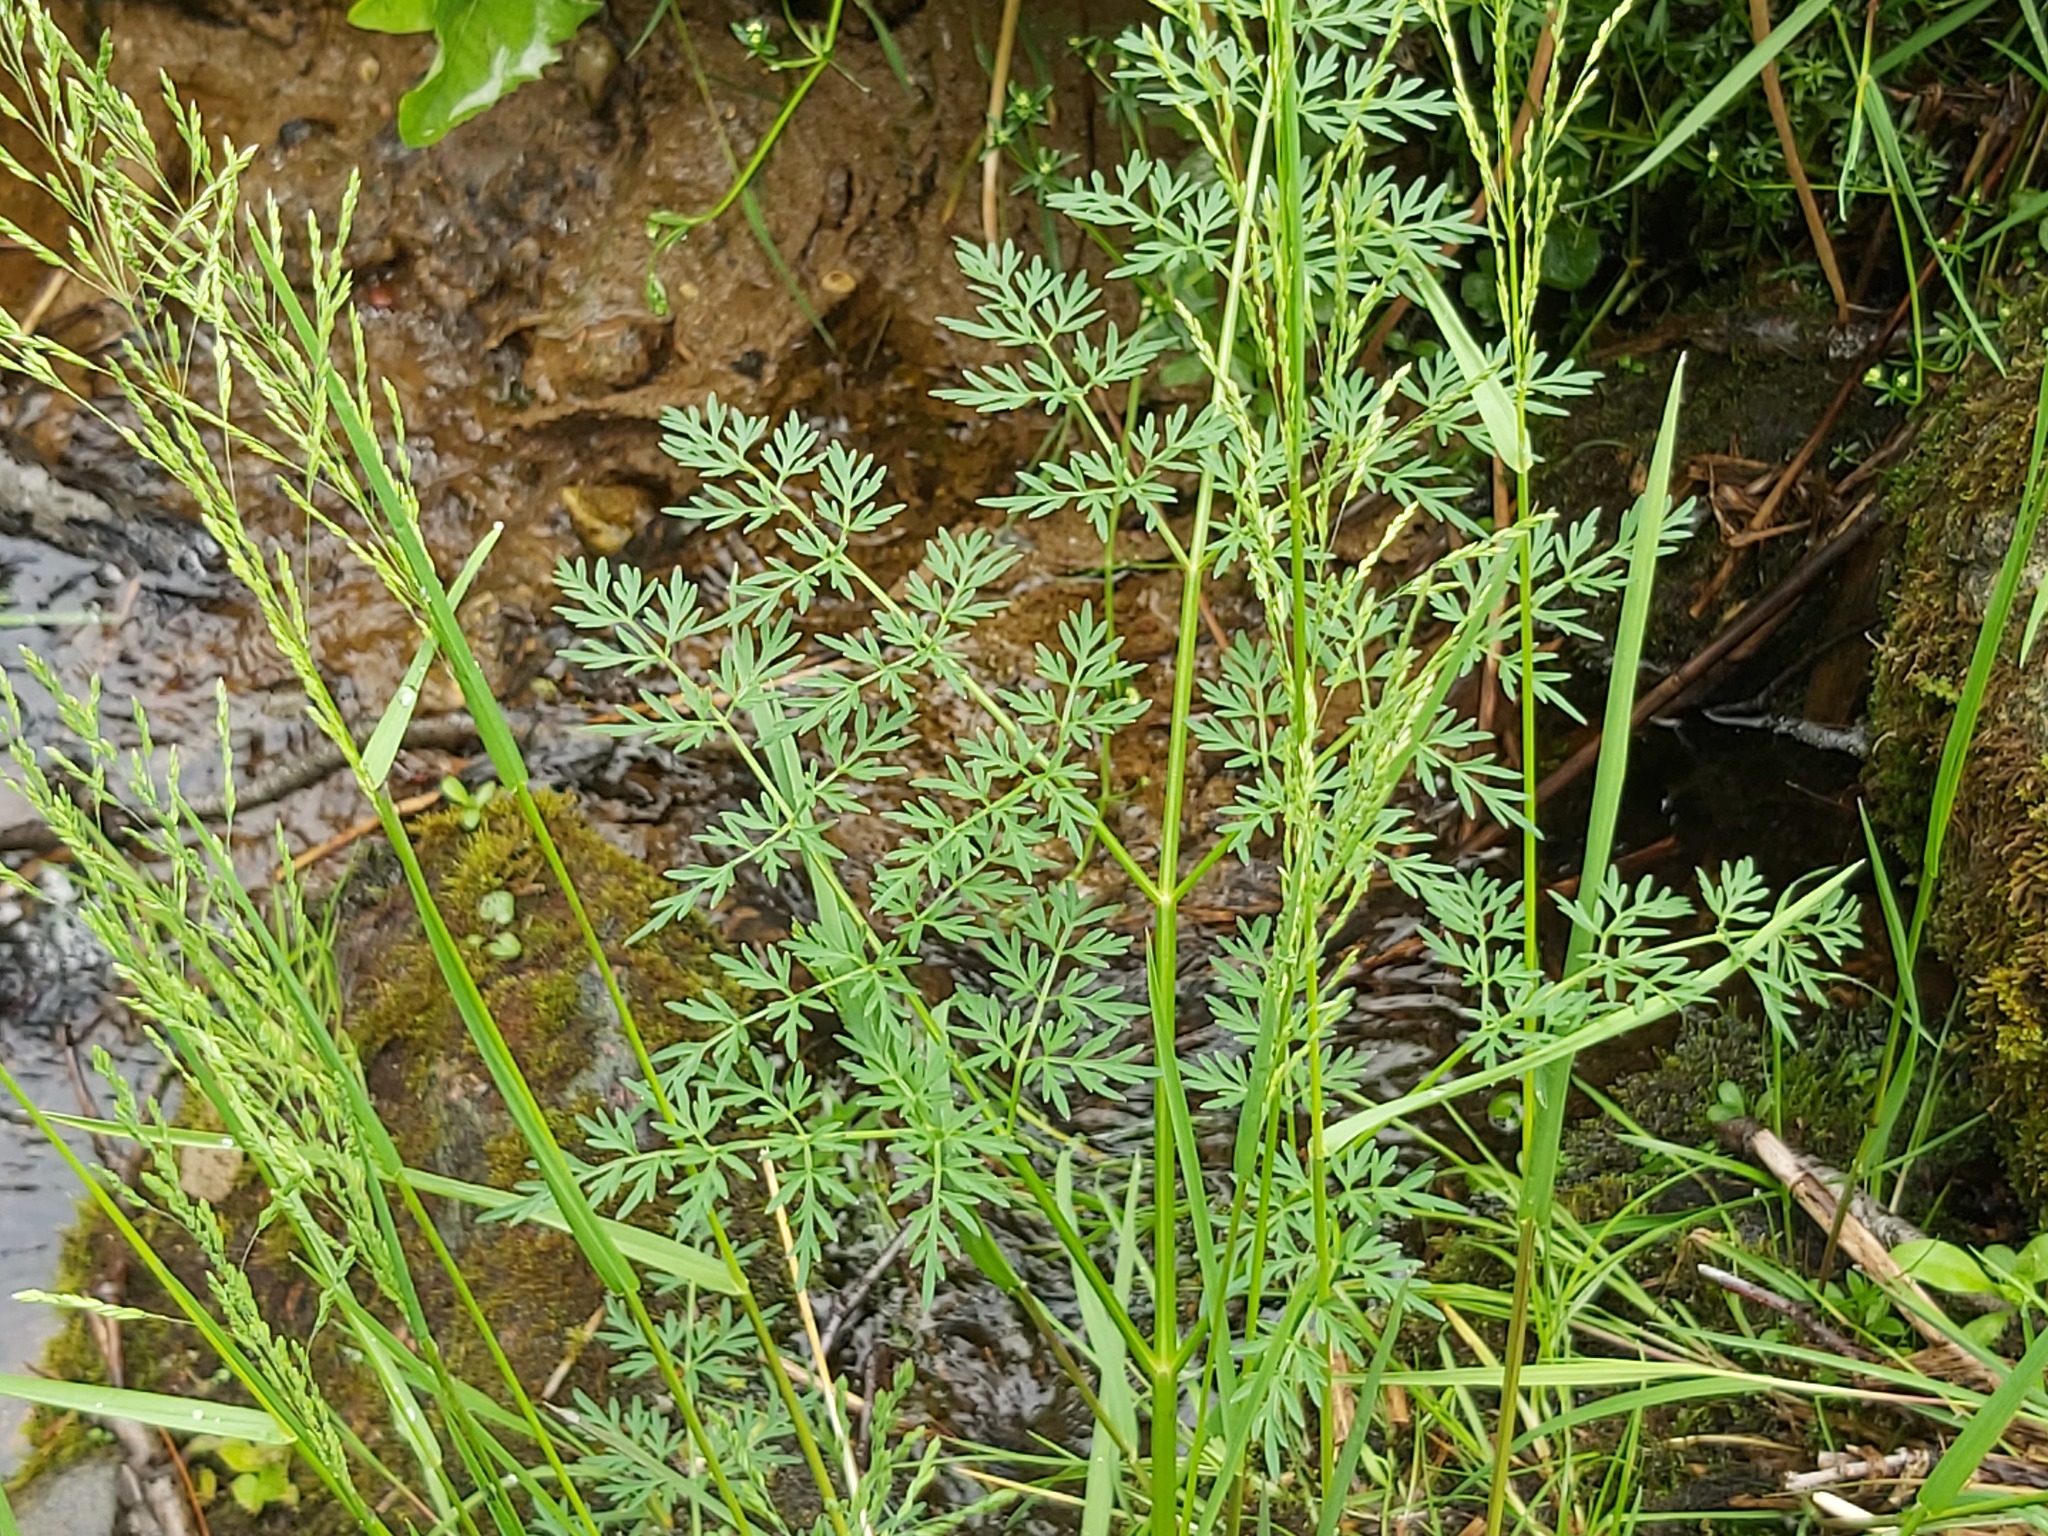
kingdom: Plantae
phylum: Tracheophyta
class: Magnoliopsida
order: Apiales
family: Apiaceae
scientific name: Apiaceae
